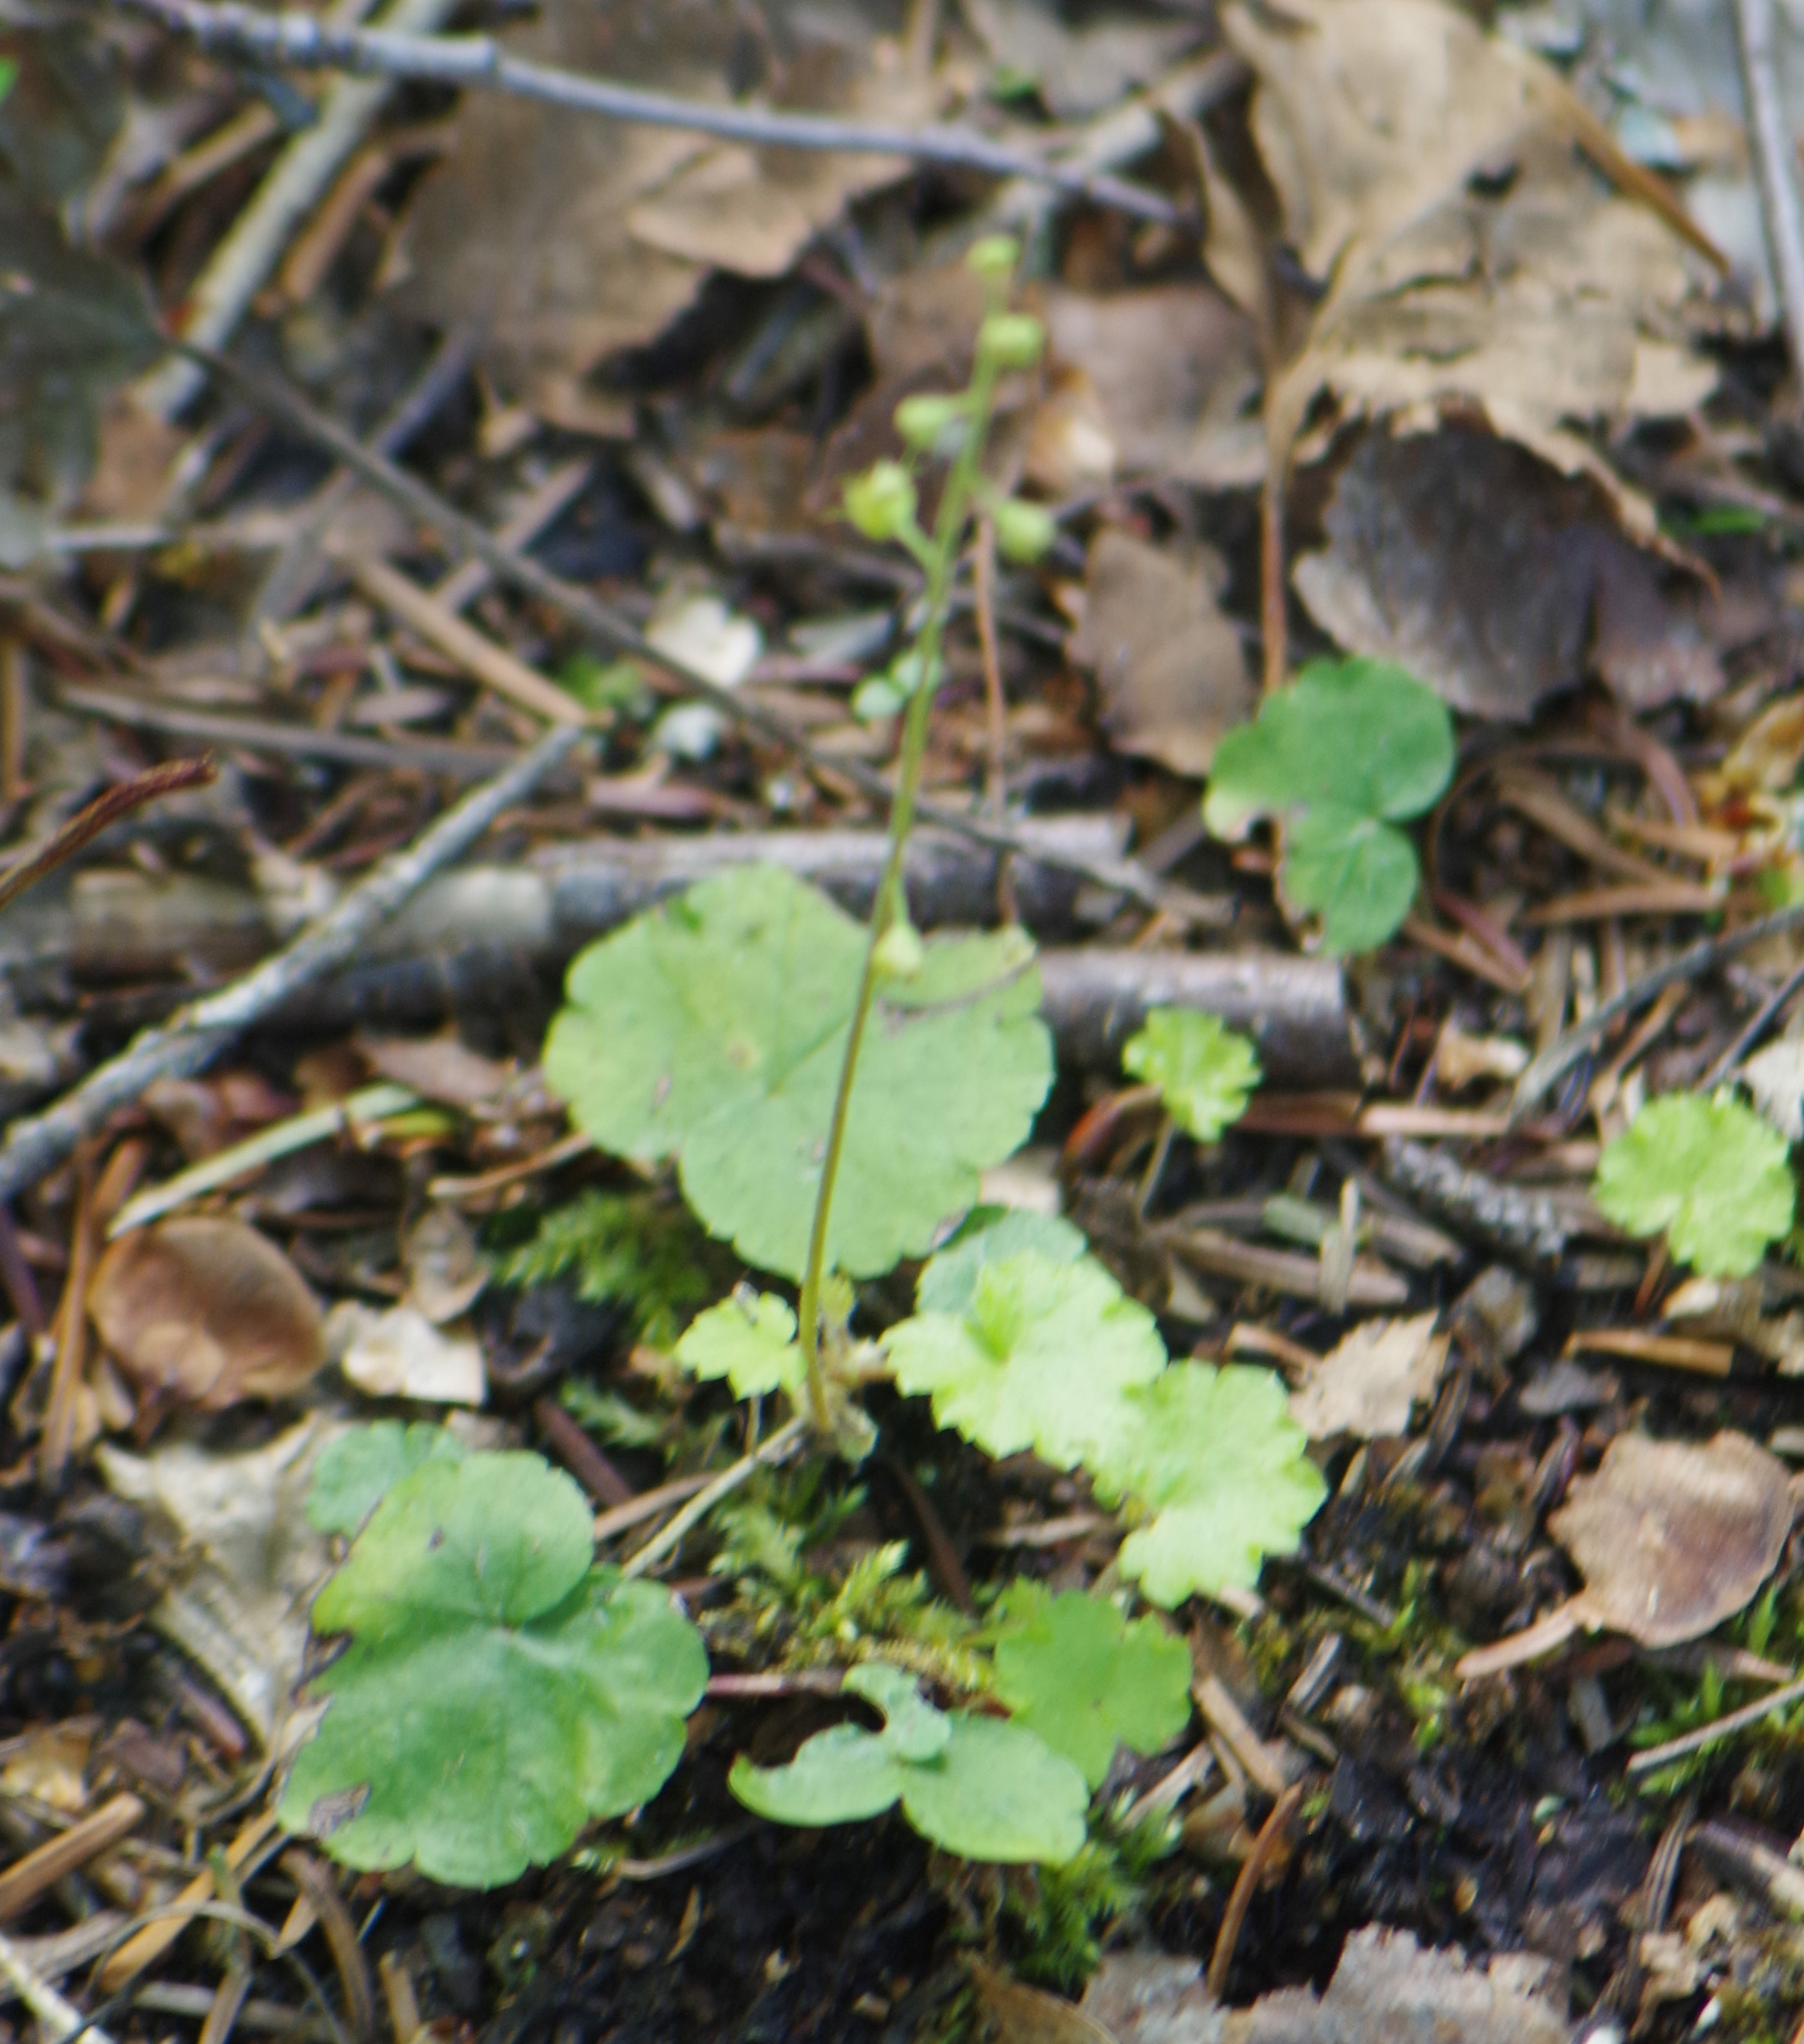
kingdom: Plantae
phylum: Tracheophyta
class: Magnoliopsida
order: Saxifragales
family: Saxifragaceae
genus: Mitella
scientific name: Mitella nuda
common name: Bare-stemmed bishop's-cap
